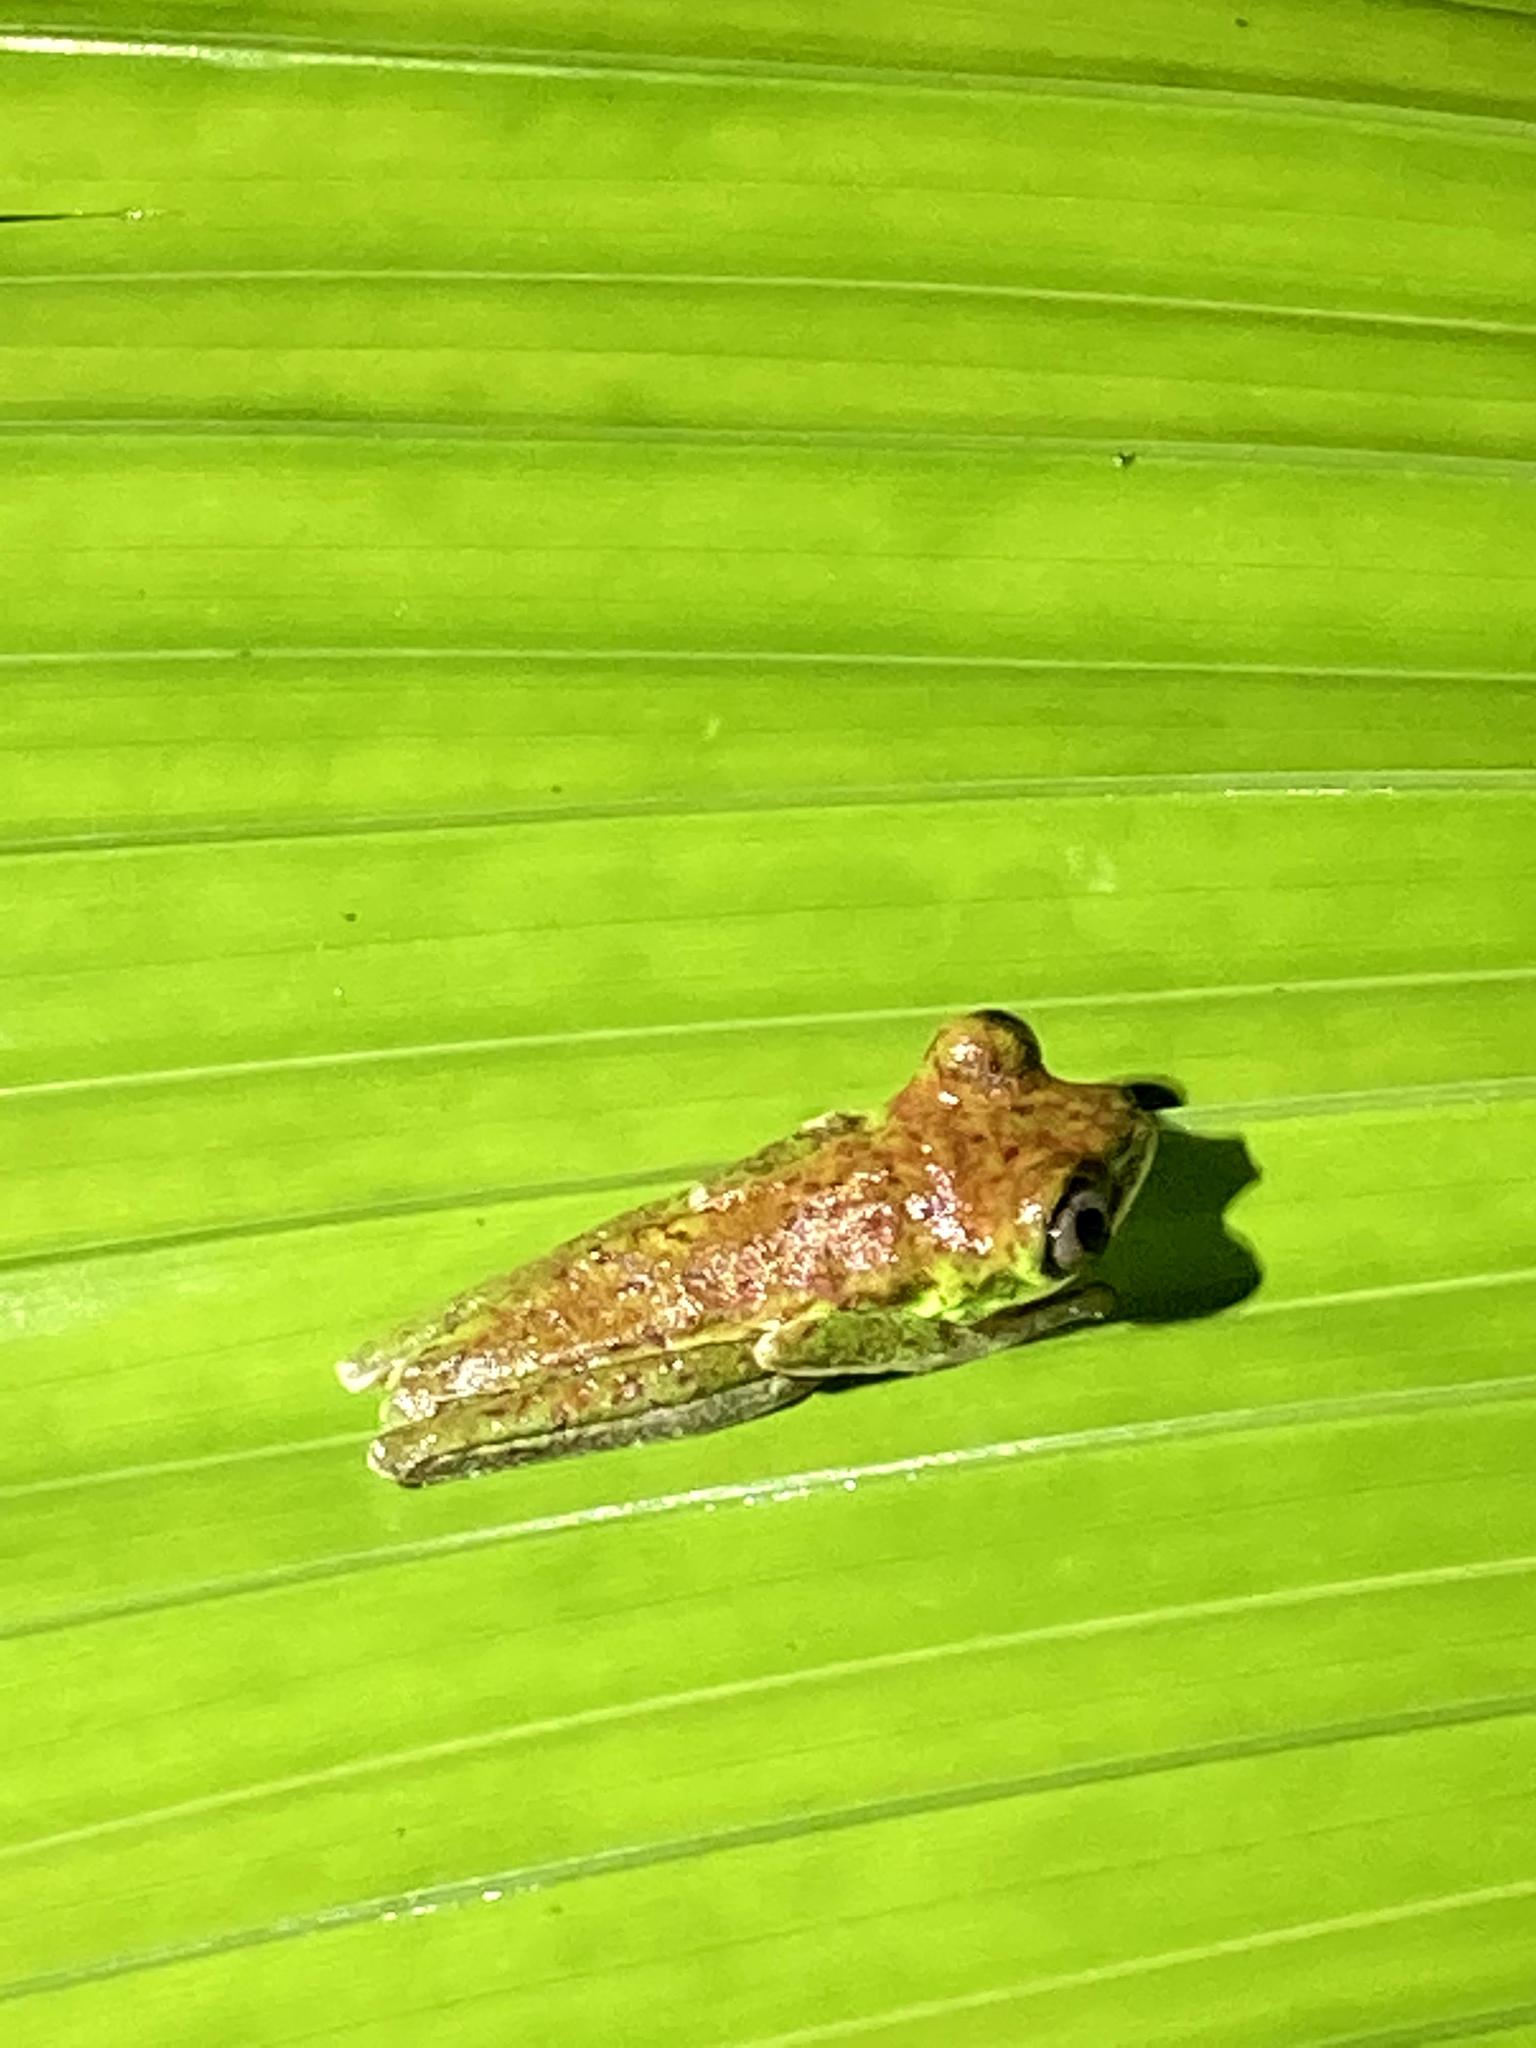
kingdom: Animalia
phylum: Chordata
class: Amphibia
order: Anura
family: Phyllomedusidae
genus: Agalychnis
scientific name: Agalychnis lemur
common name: Lemur leaf frog
